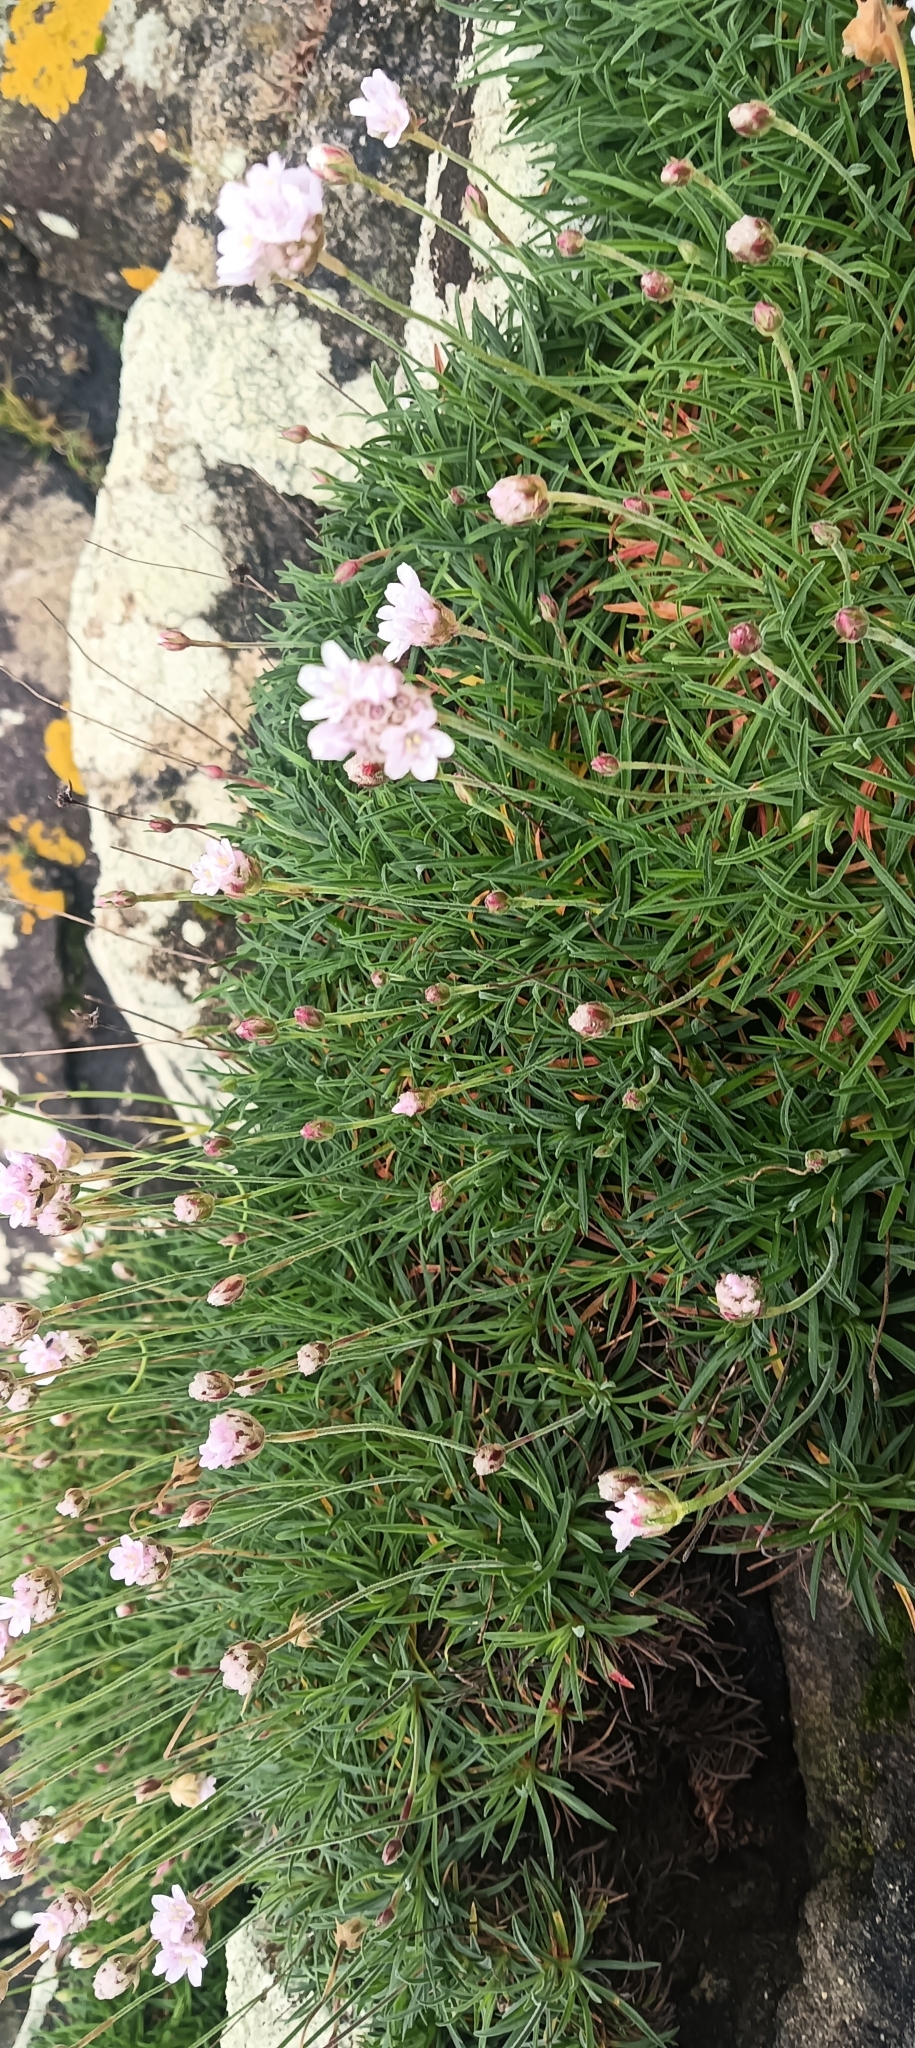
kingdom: Plantae
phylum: Tracheophyta
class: Magnoliopsida
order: Caryophyllales
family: Plumbaginaceae
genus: Armeria
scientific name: Armeria maritima
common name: Thrift
